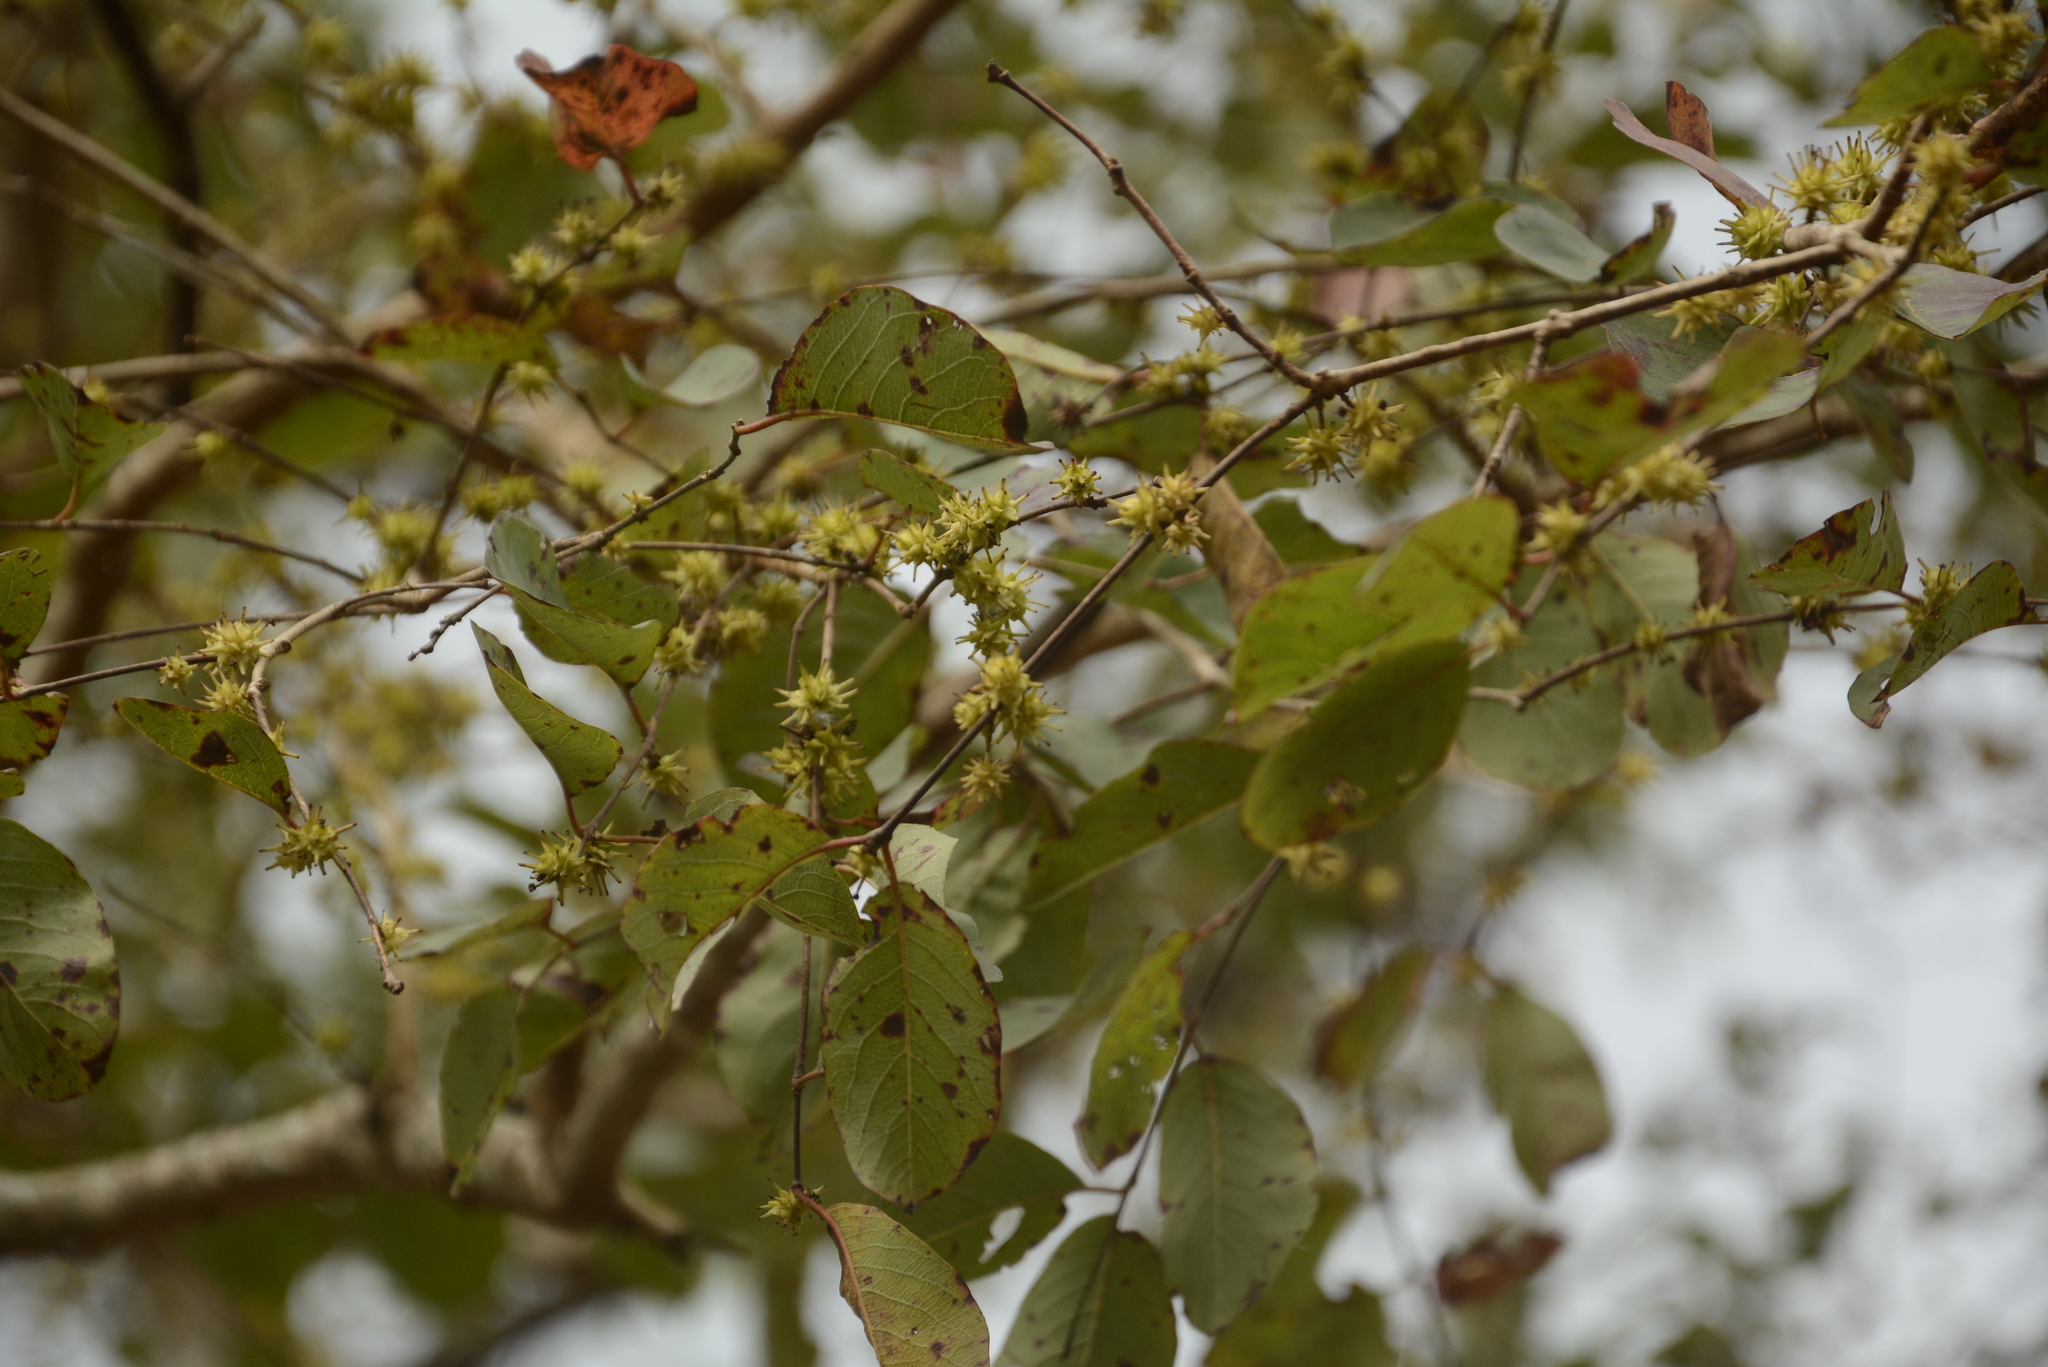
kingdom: Plantae
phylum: Tracheophyta
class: Magnoliopsida
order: Myrtales
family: Combretaceae
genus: Terminalia
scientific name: Terminalia latifolia
